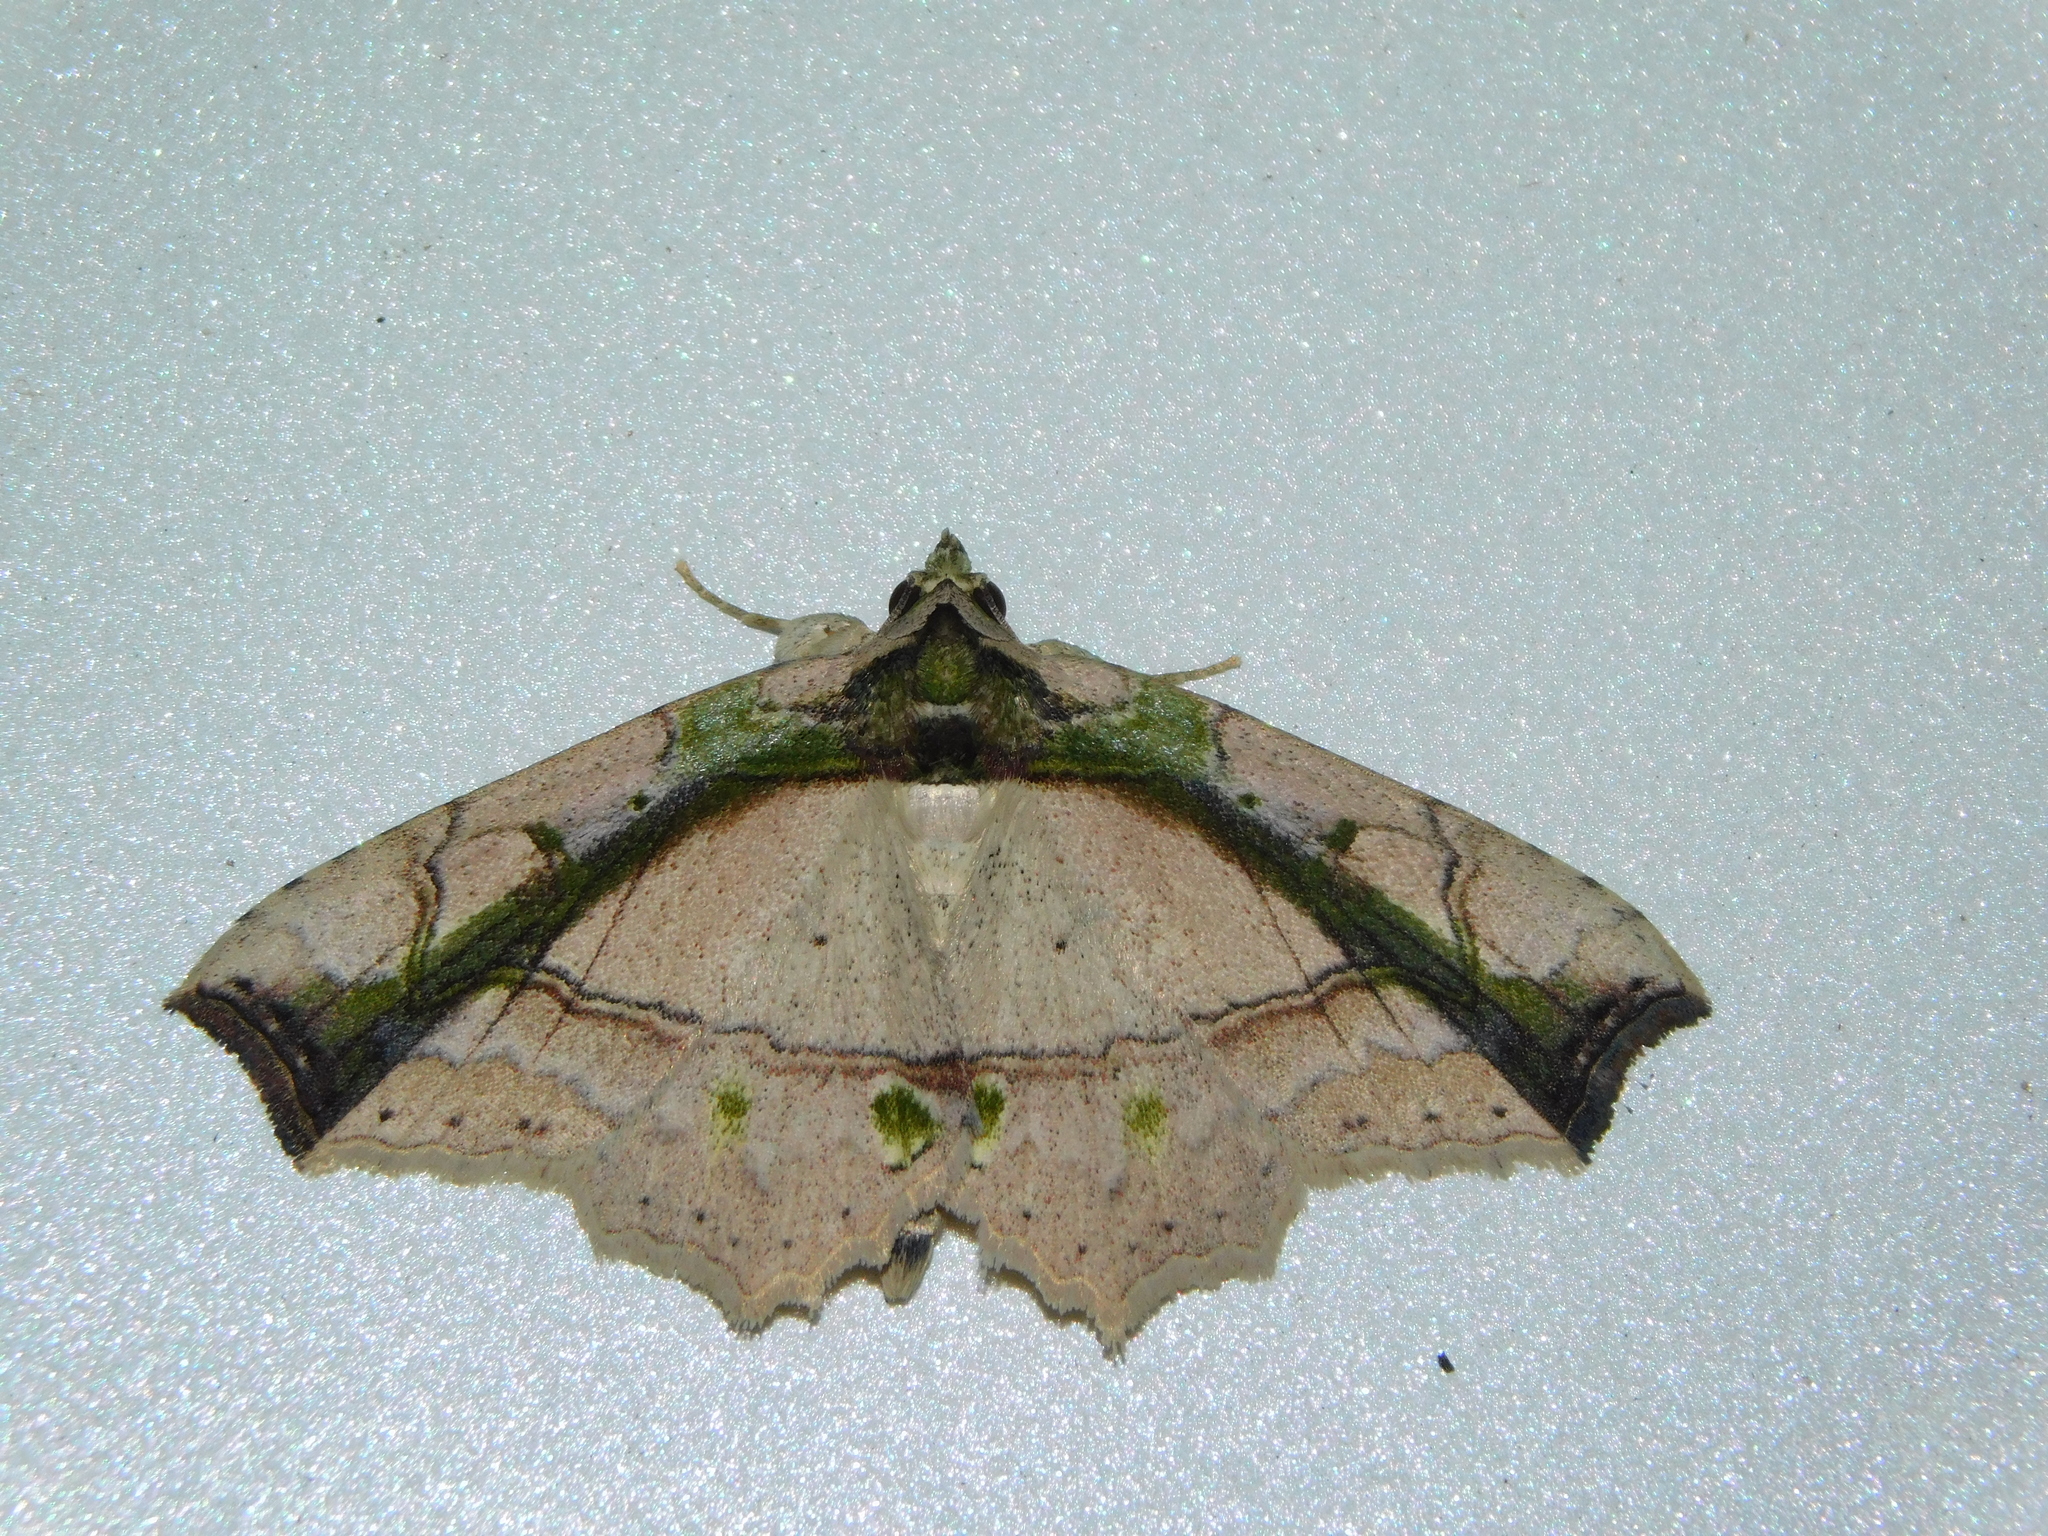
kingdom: Animalia
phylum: Arthropoda
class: Insecta
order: Lepidoptera
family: Erebidae
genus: Tamba
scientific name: Tamba lala
